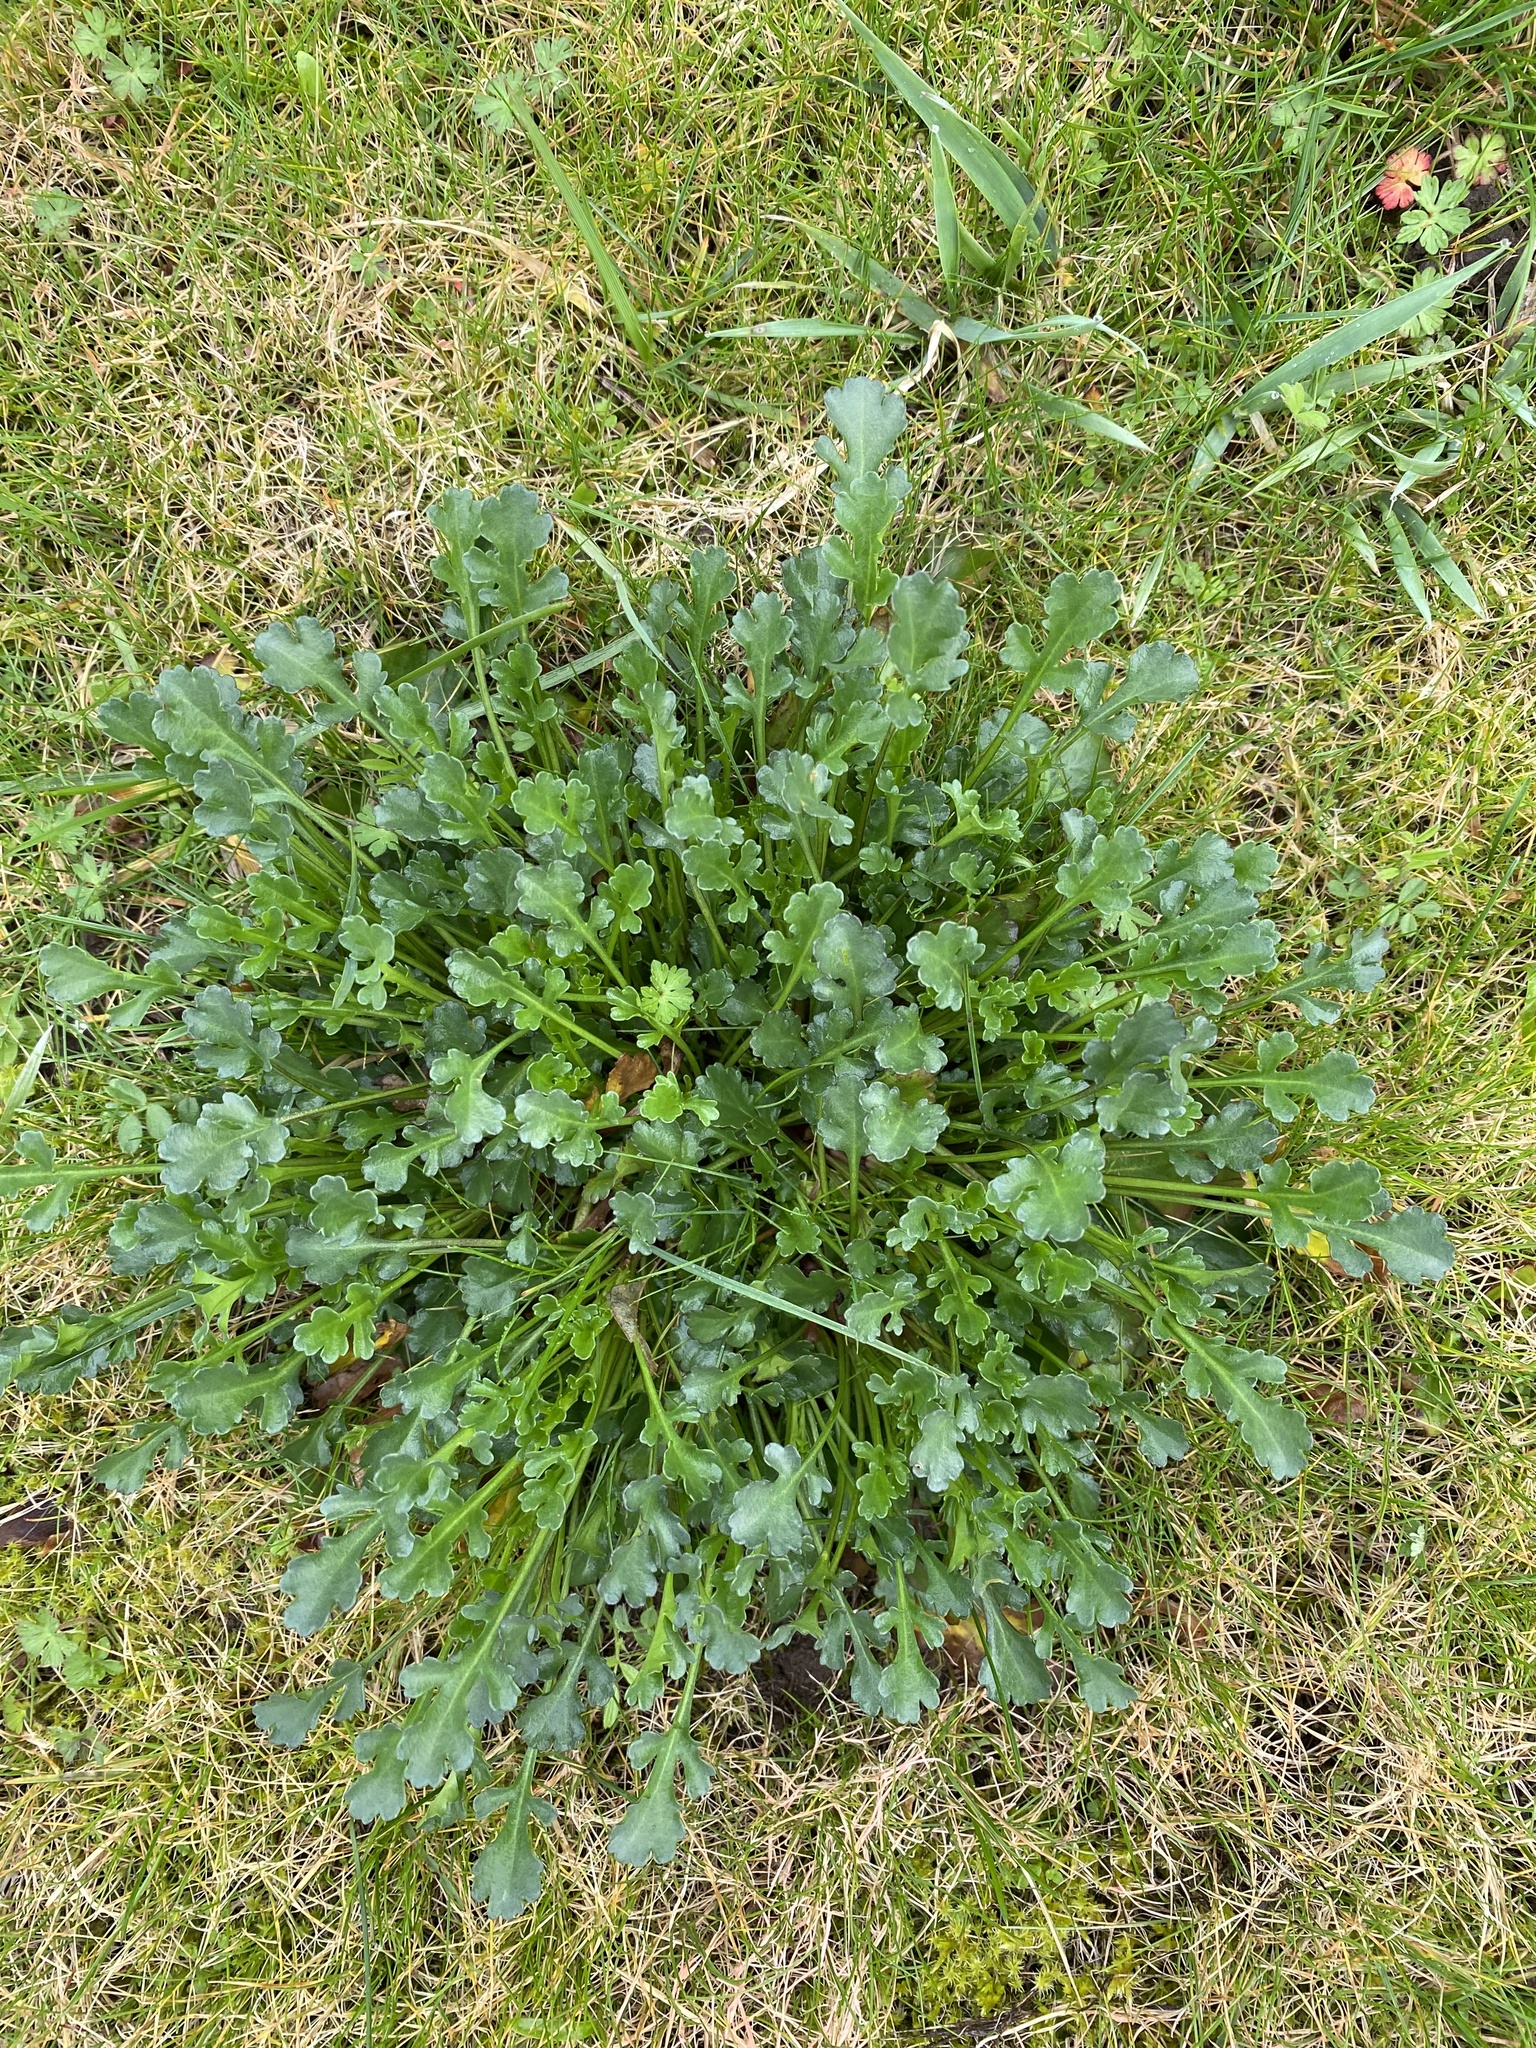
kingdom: Plantae
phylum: Tracheophyta
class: Magnoliopsida
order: Asterales
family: Asteraceae
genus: Leucanthemum
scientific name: Leucanthemum vulgare
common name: Oxeye daisy
